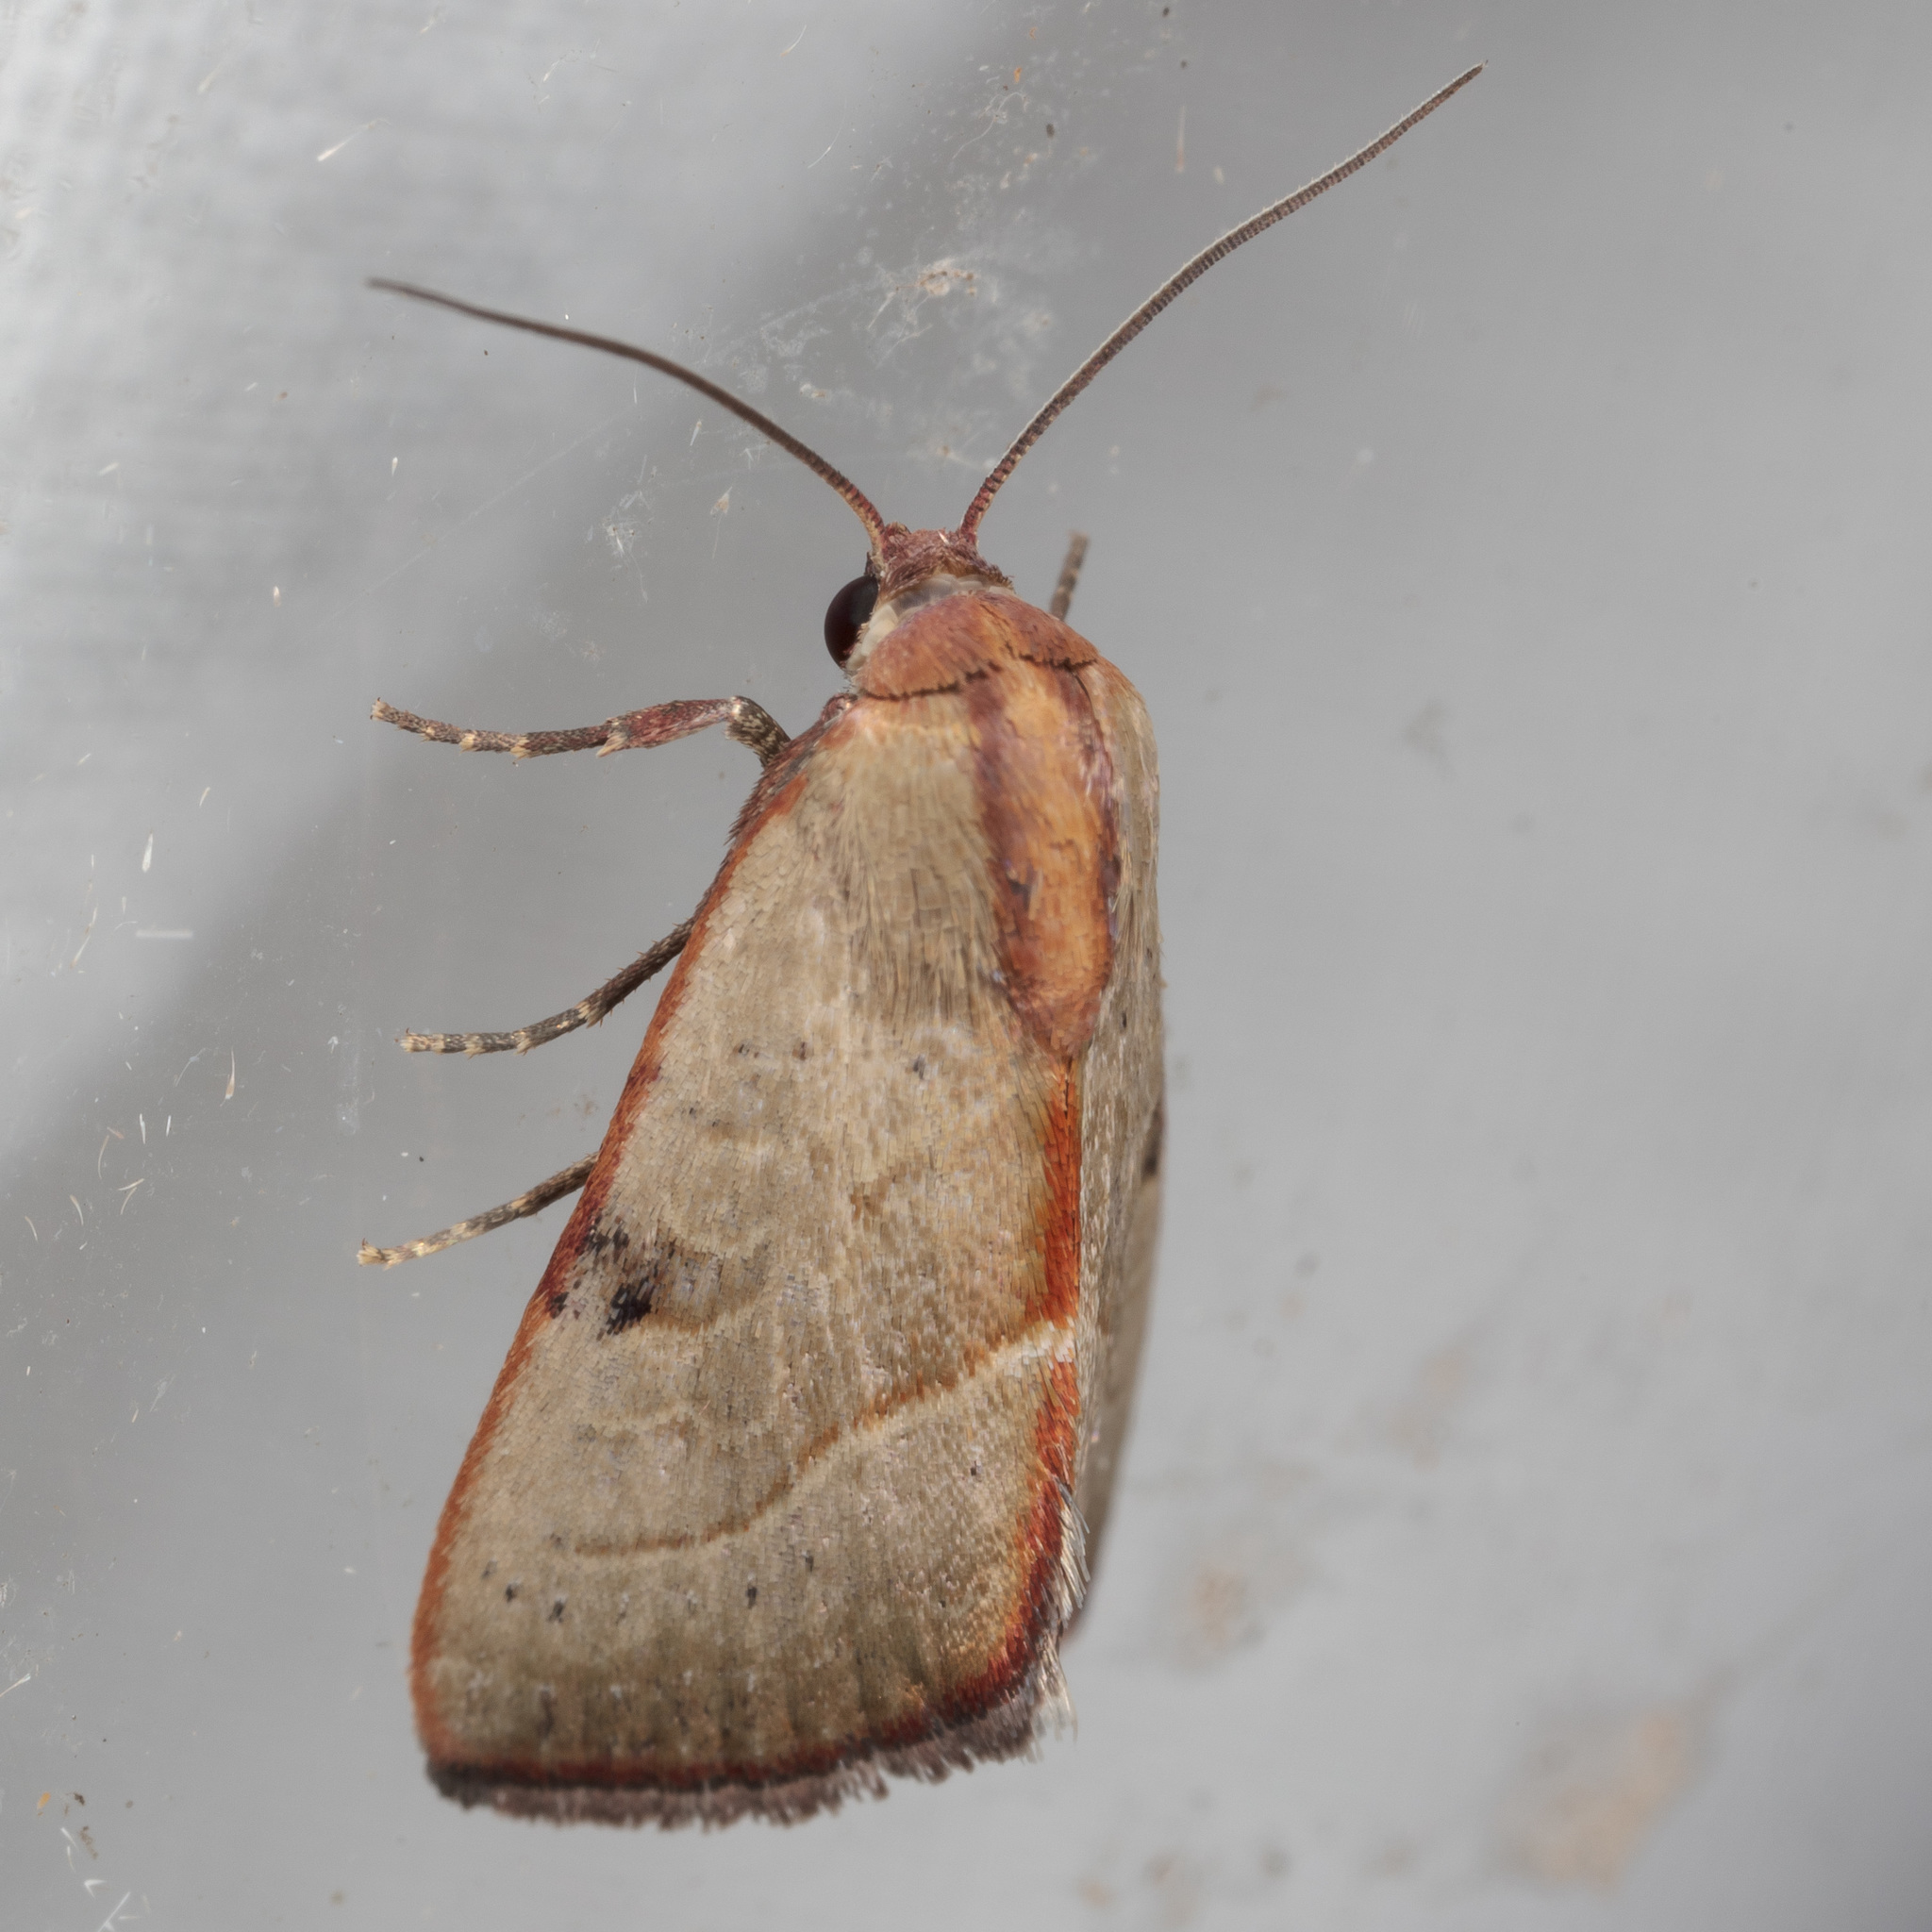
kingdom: Animalia
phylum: Arthropoda
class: Insecta
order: Lepidoptera
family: Noctuidae
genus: Galgula
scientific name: Galgula partita
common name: Wedgeling
